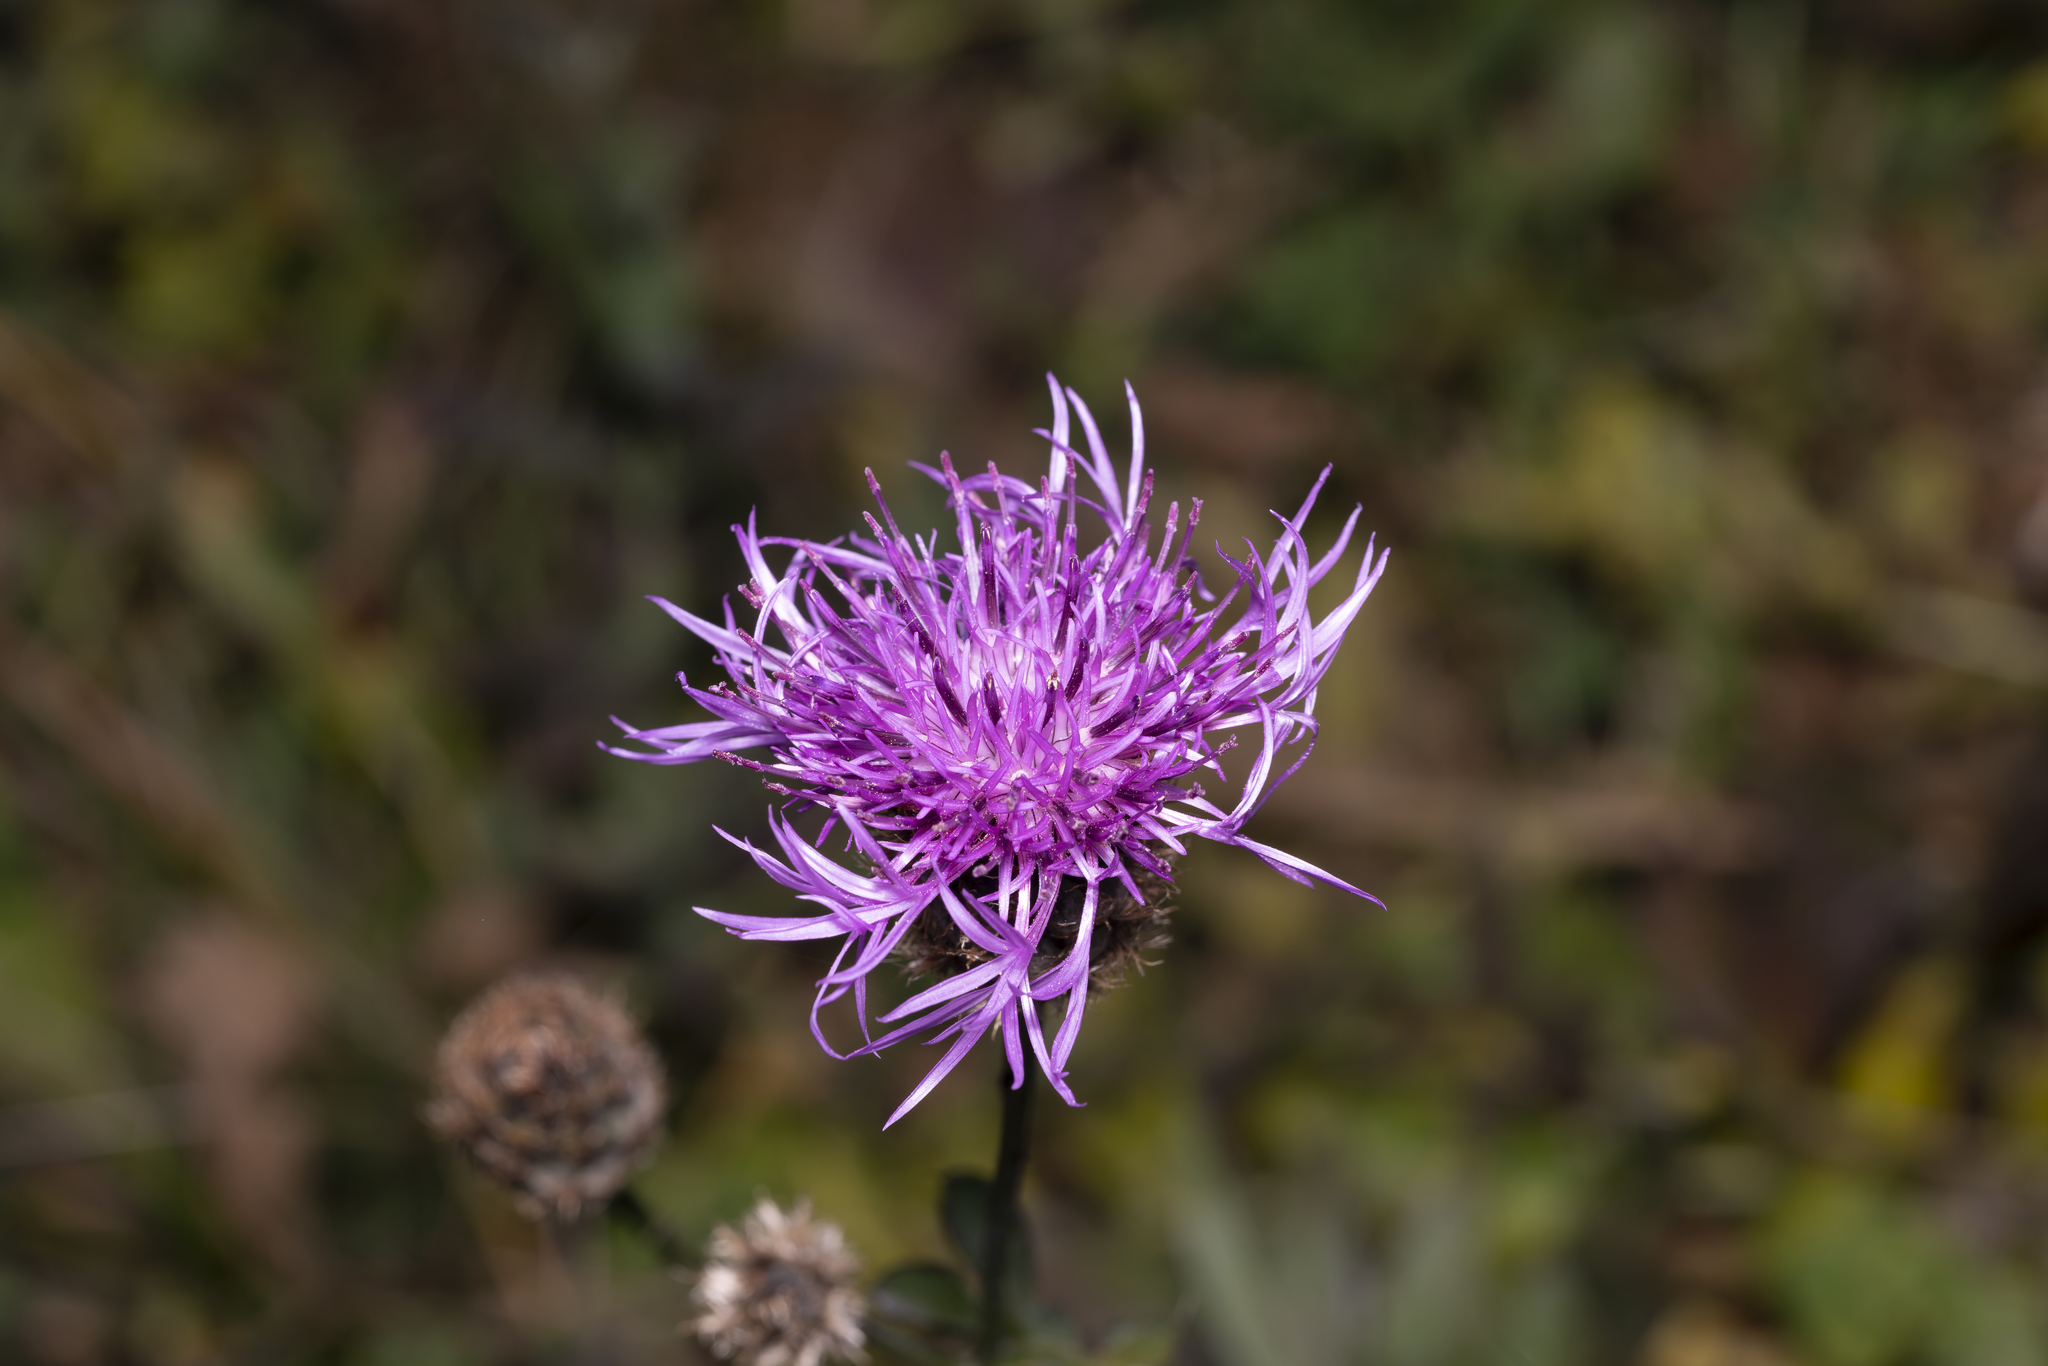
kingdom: Plantae
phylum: Tracheophyta
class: Magnoliopsida
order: Asterales
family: Asteraceae
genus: Centaurea
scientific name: Centaurea scabiosa
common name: Greater knapweed
